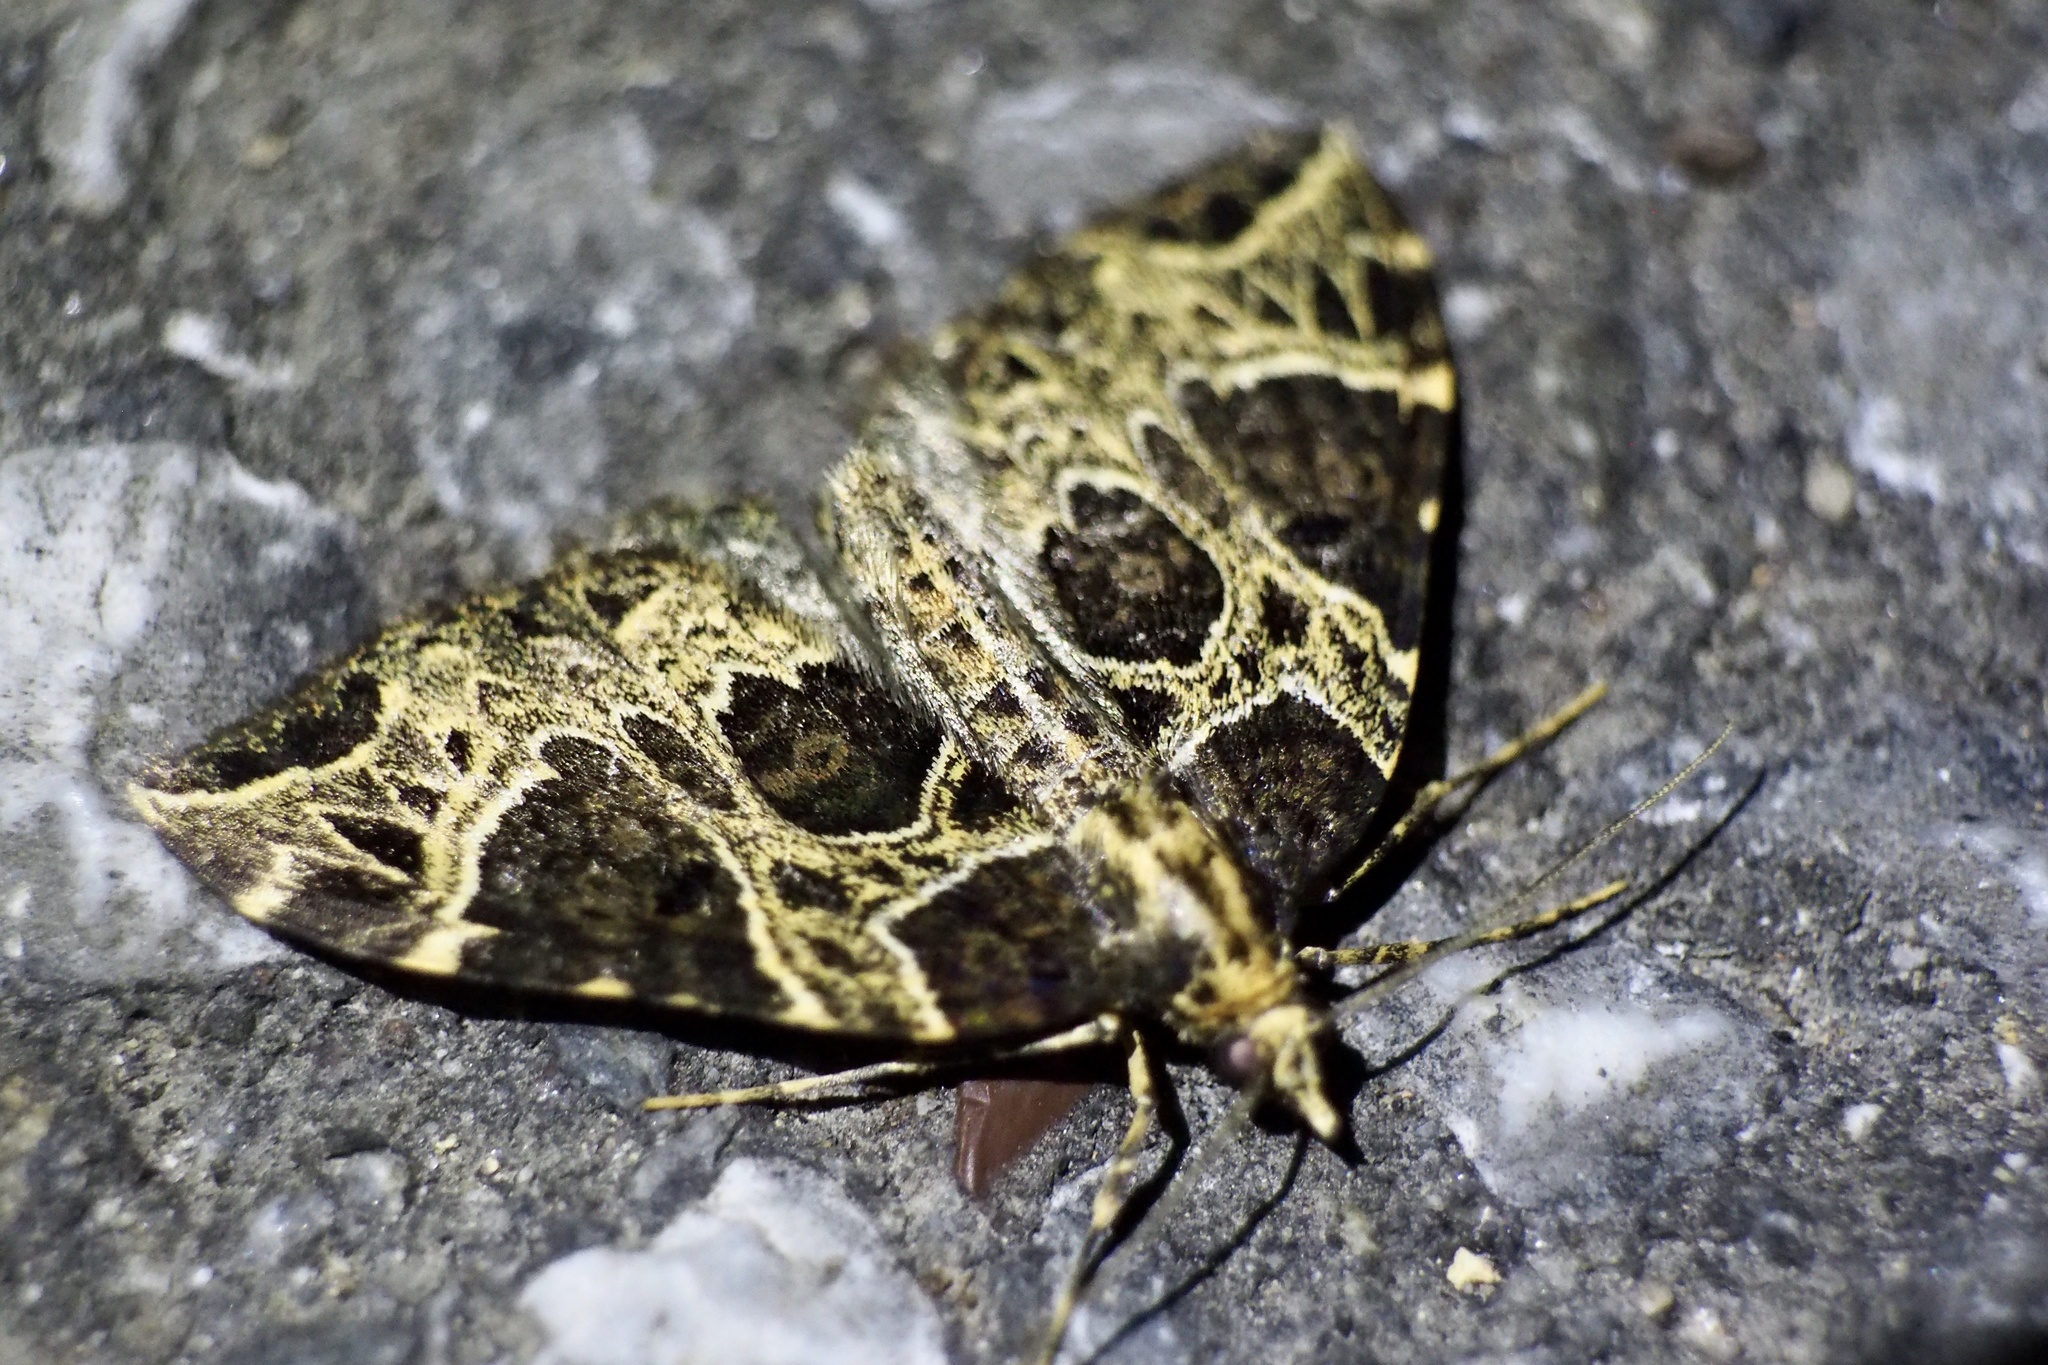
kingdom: Animalia
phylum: Arthropoda
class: Insecta
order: Lepidoptera
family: Geometridae
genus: Eustroma
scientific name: Eustroma melancholica
